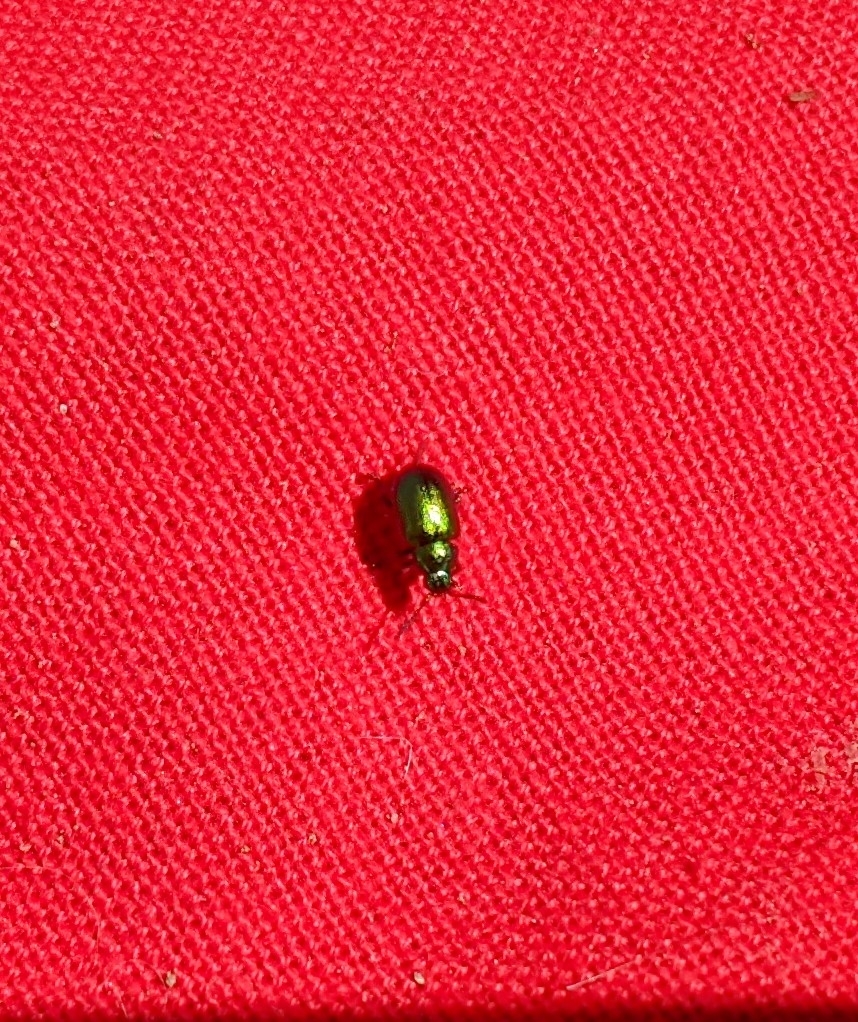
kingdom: Animalia
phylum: Arthropoda
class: Insecta
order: Coleoptera
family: Chrysomelidae
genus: Gastrophysa
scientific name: Gastrophysa viridula
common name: Green dock beetle
